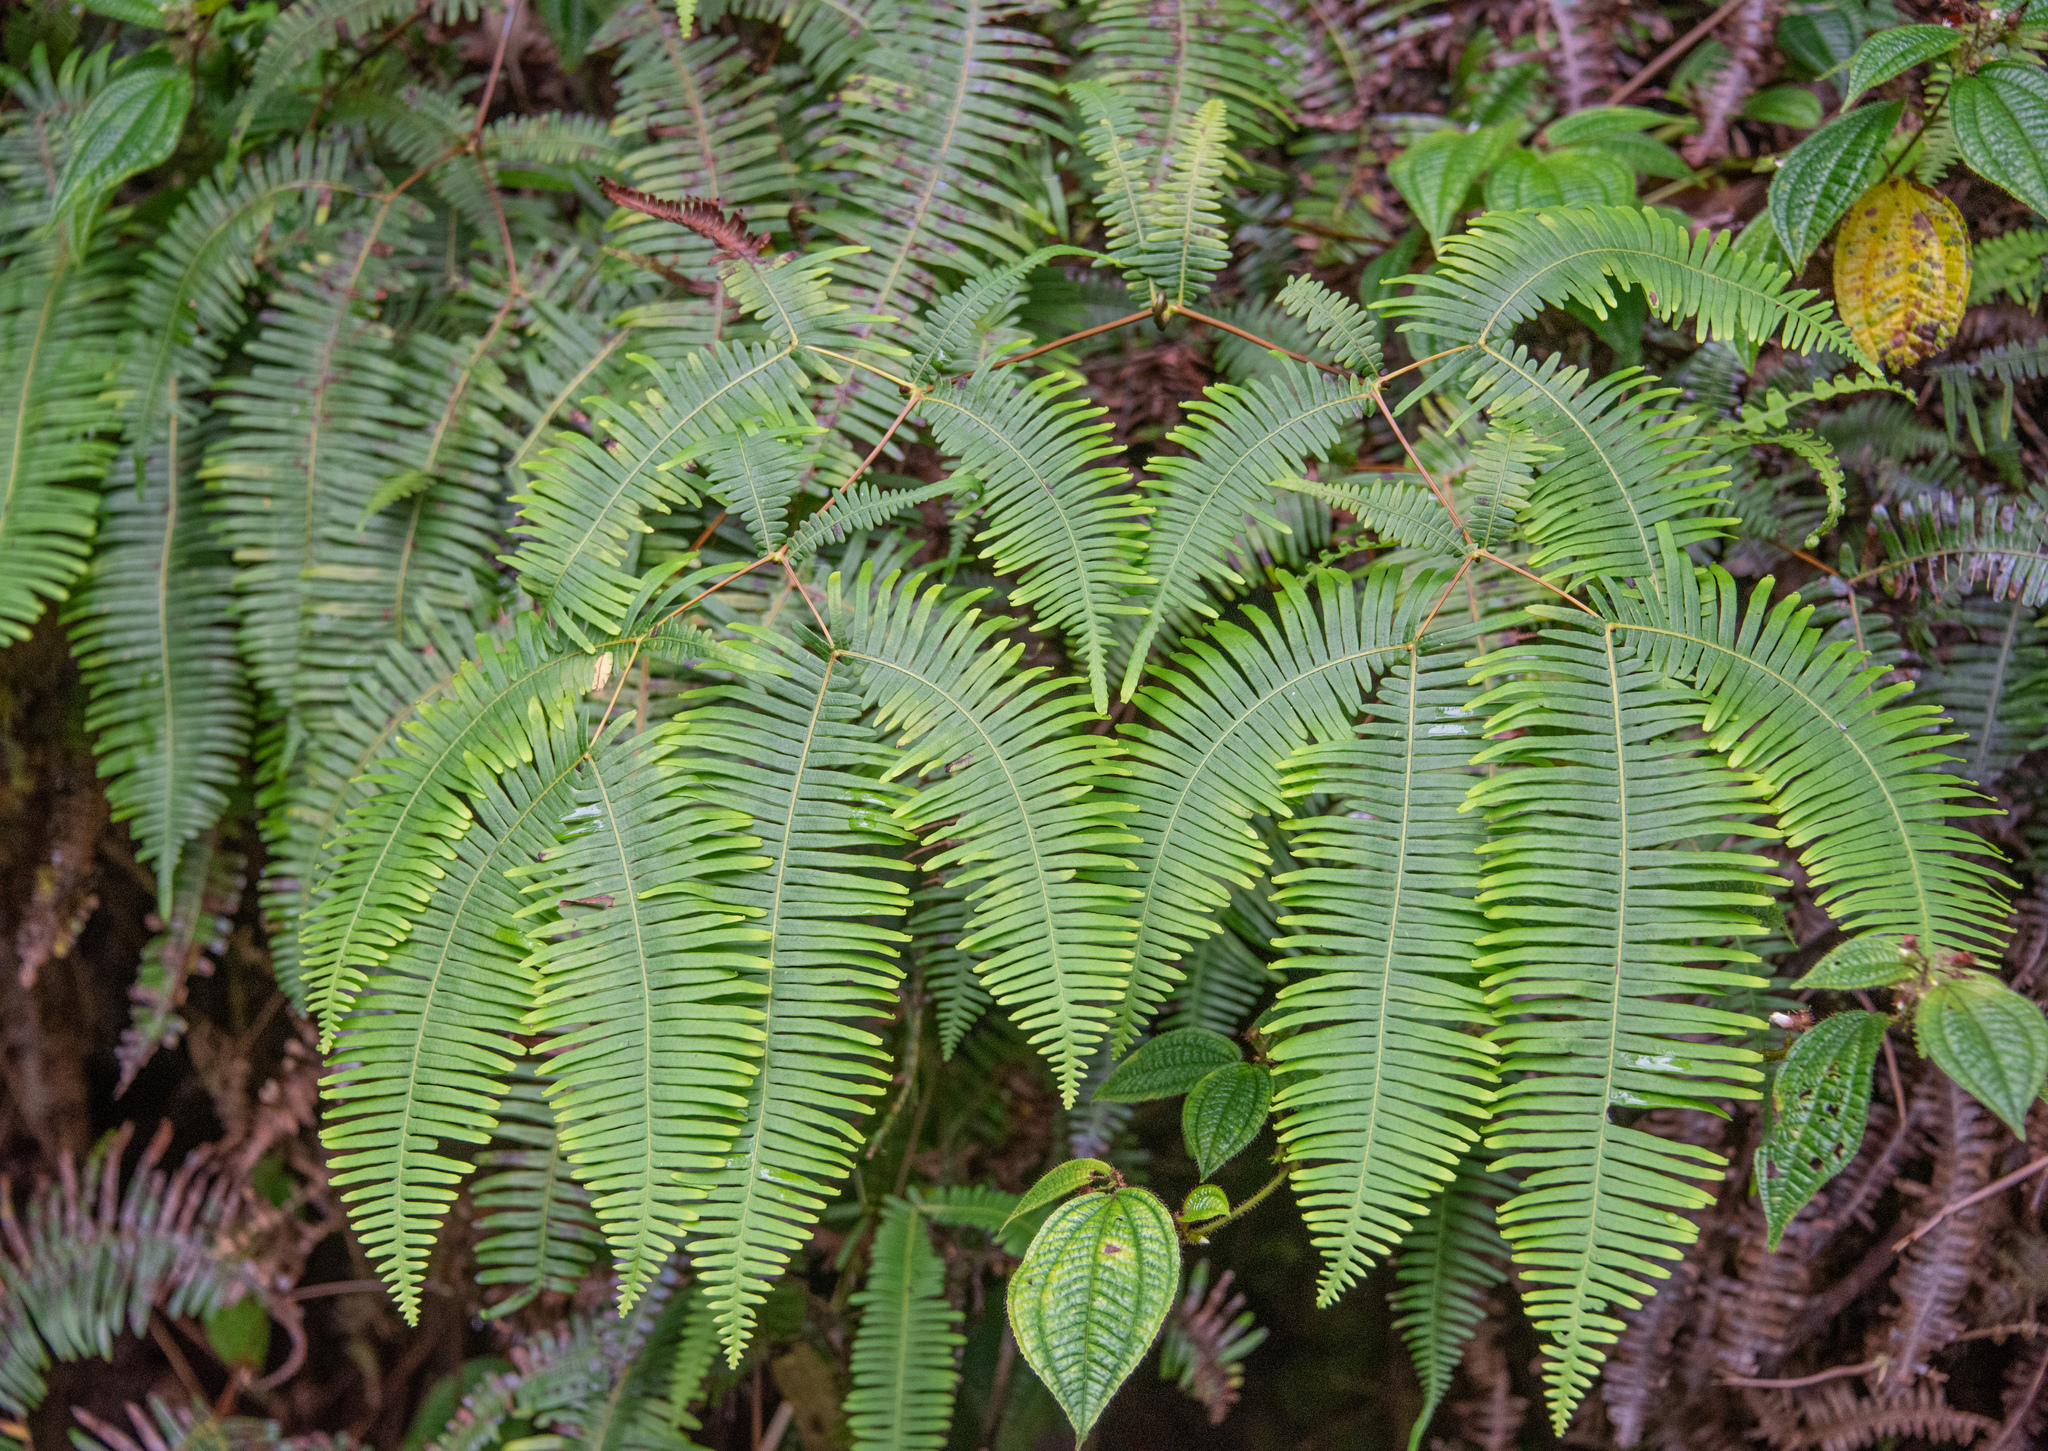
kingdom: Plantae
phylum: Tracheophyta
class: Polypodiopsida
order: Gleicheniales
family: Gleicheniaceae
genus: Dicranopteris
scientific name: Dicranopteris linearis
